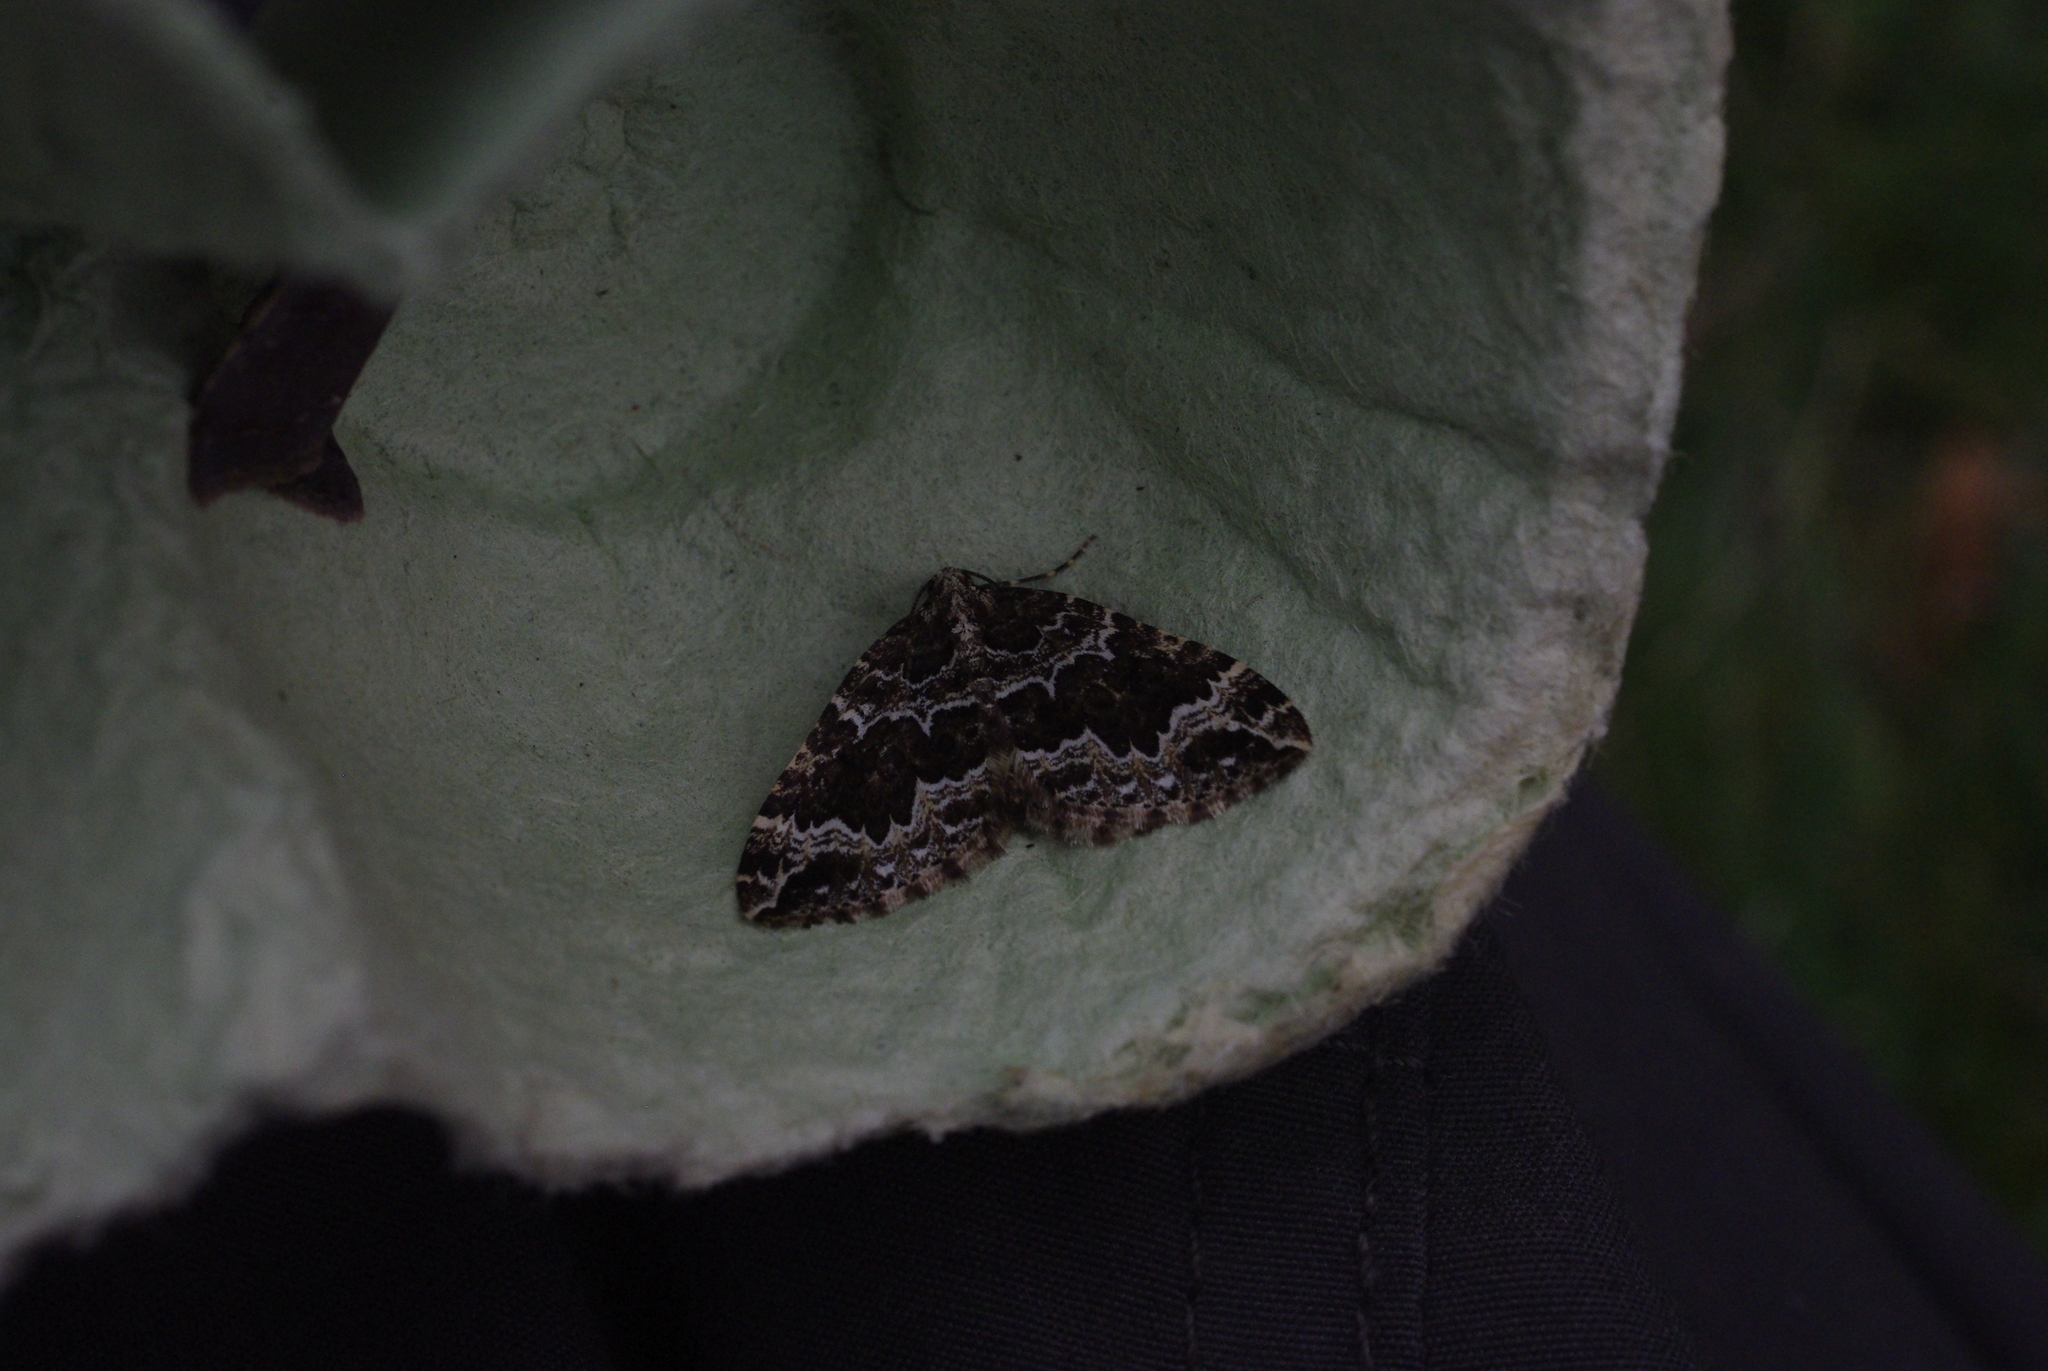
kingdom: Animalia
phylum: Arthropoda
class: Insecta
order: Lepidoptera
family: Geometridae
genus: Lampropteryx
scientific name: Lampropteryx suffumata
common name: Water carpet
